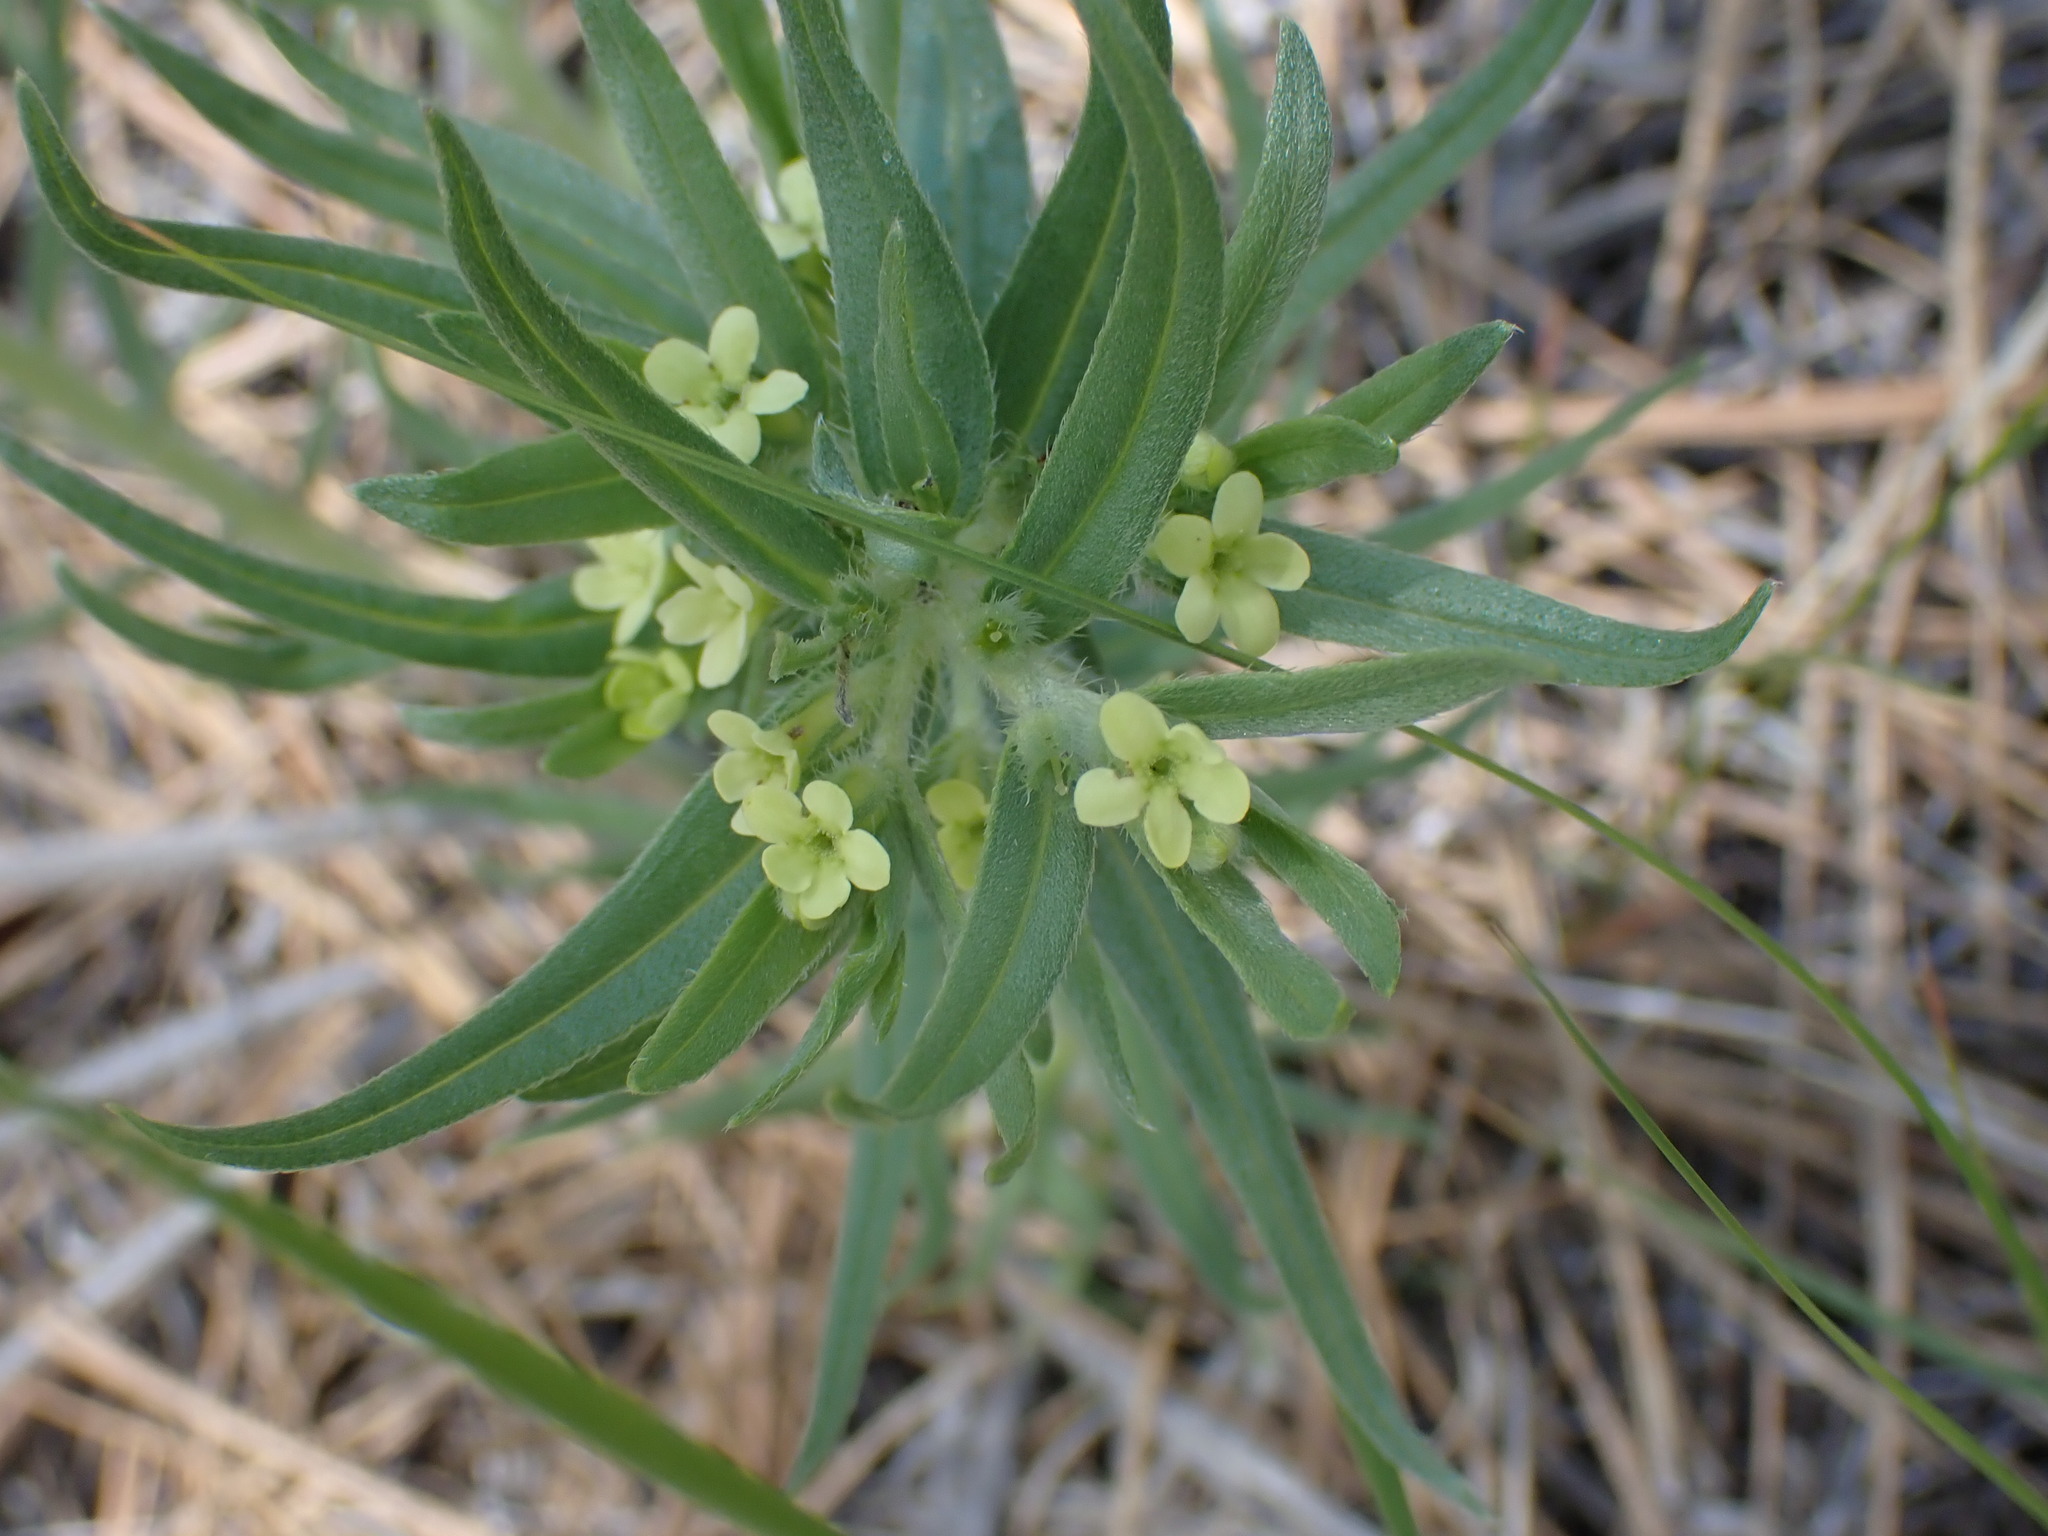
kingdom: Plantae
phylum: Tracheophyta
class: Magnoliopsida
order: Boraginales
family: Boraginaceae
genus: Lithospermum
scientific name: Lithospermum ruderale
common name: Western gromwell
